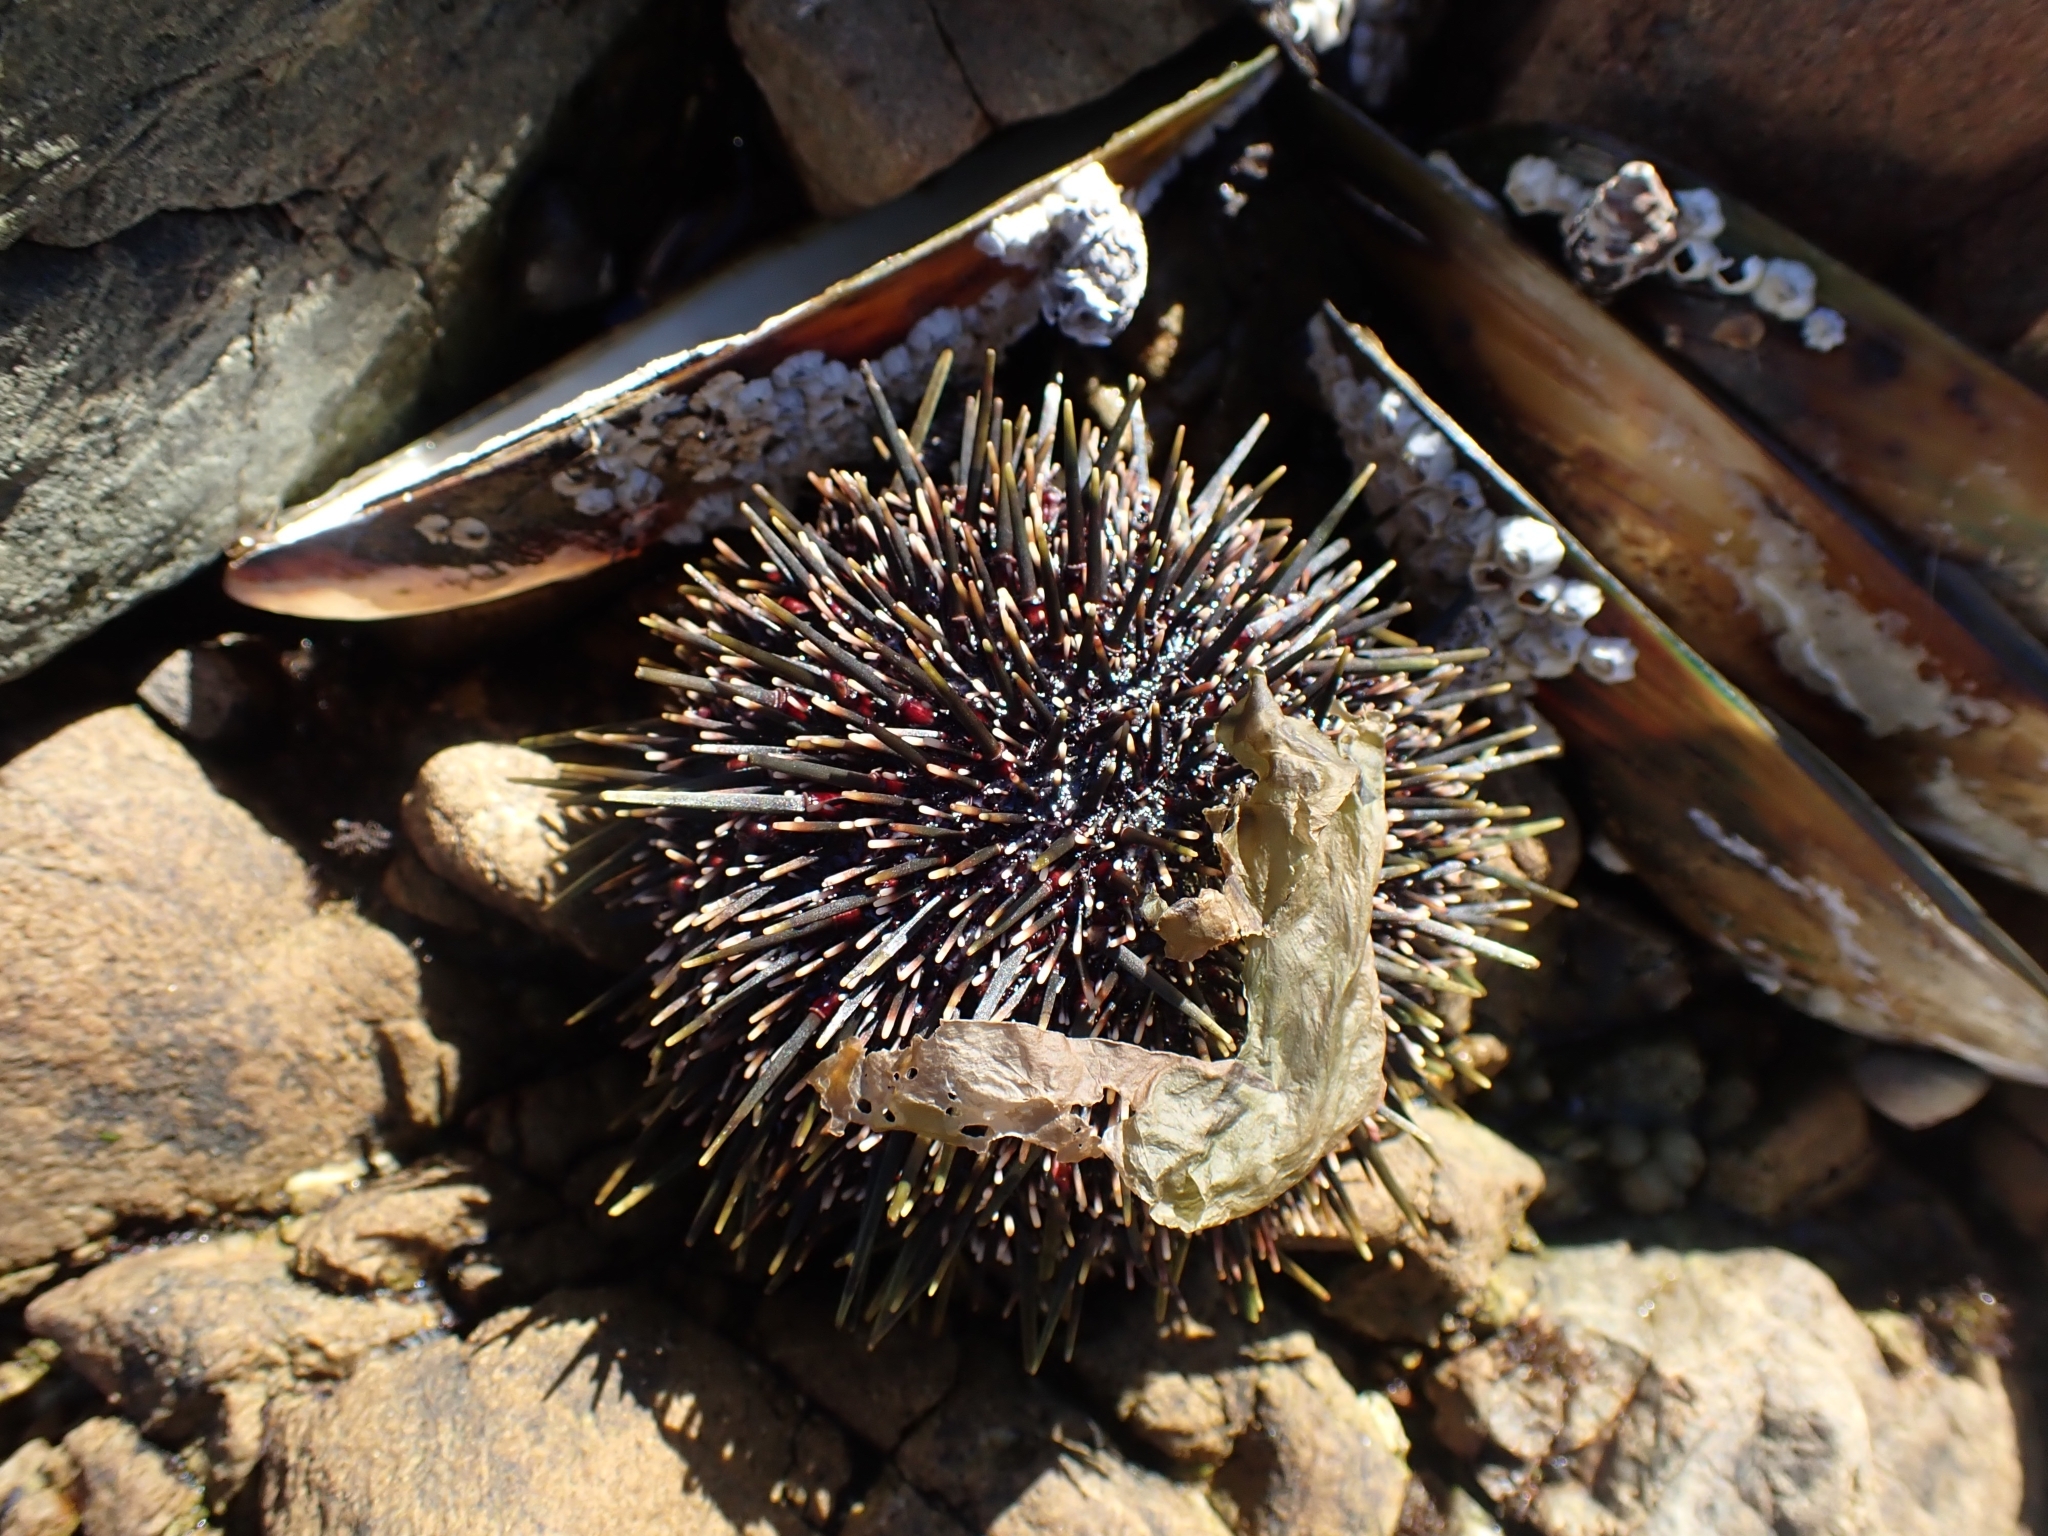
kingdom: Animalia
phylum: Echinodermata
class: Echinoidea
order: Camarodonta
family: Echinometridae
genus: Evechinus
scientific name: Evechinus chloroticus
